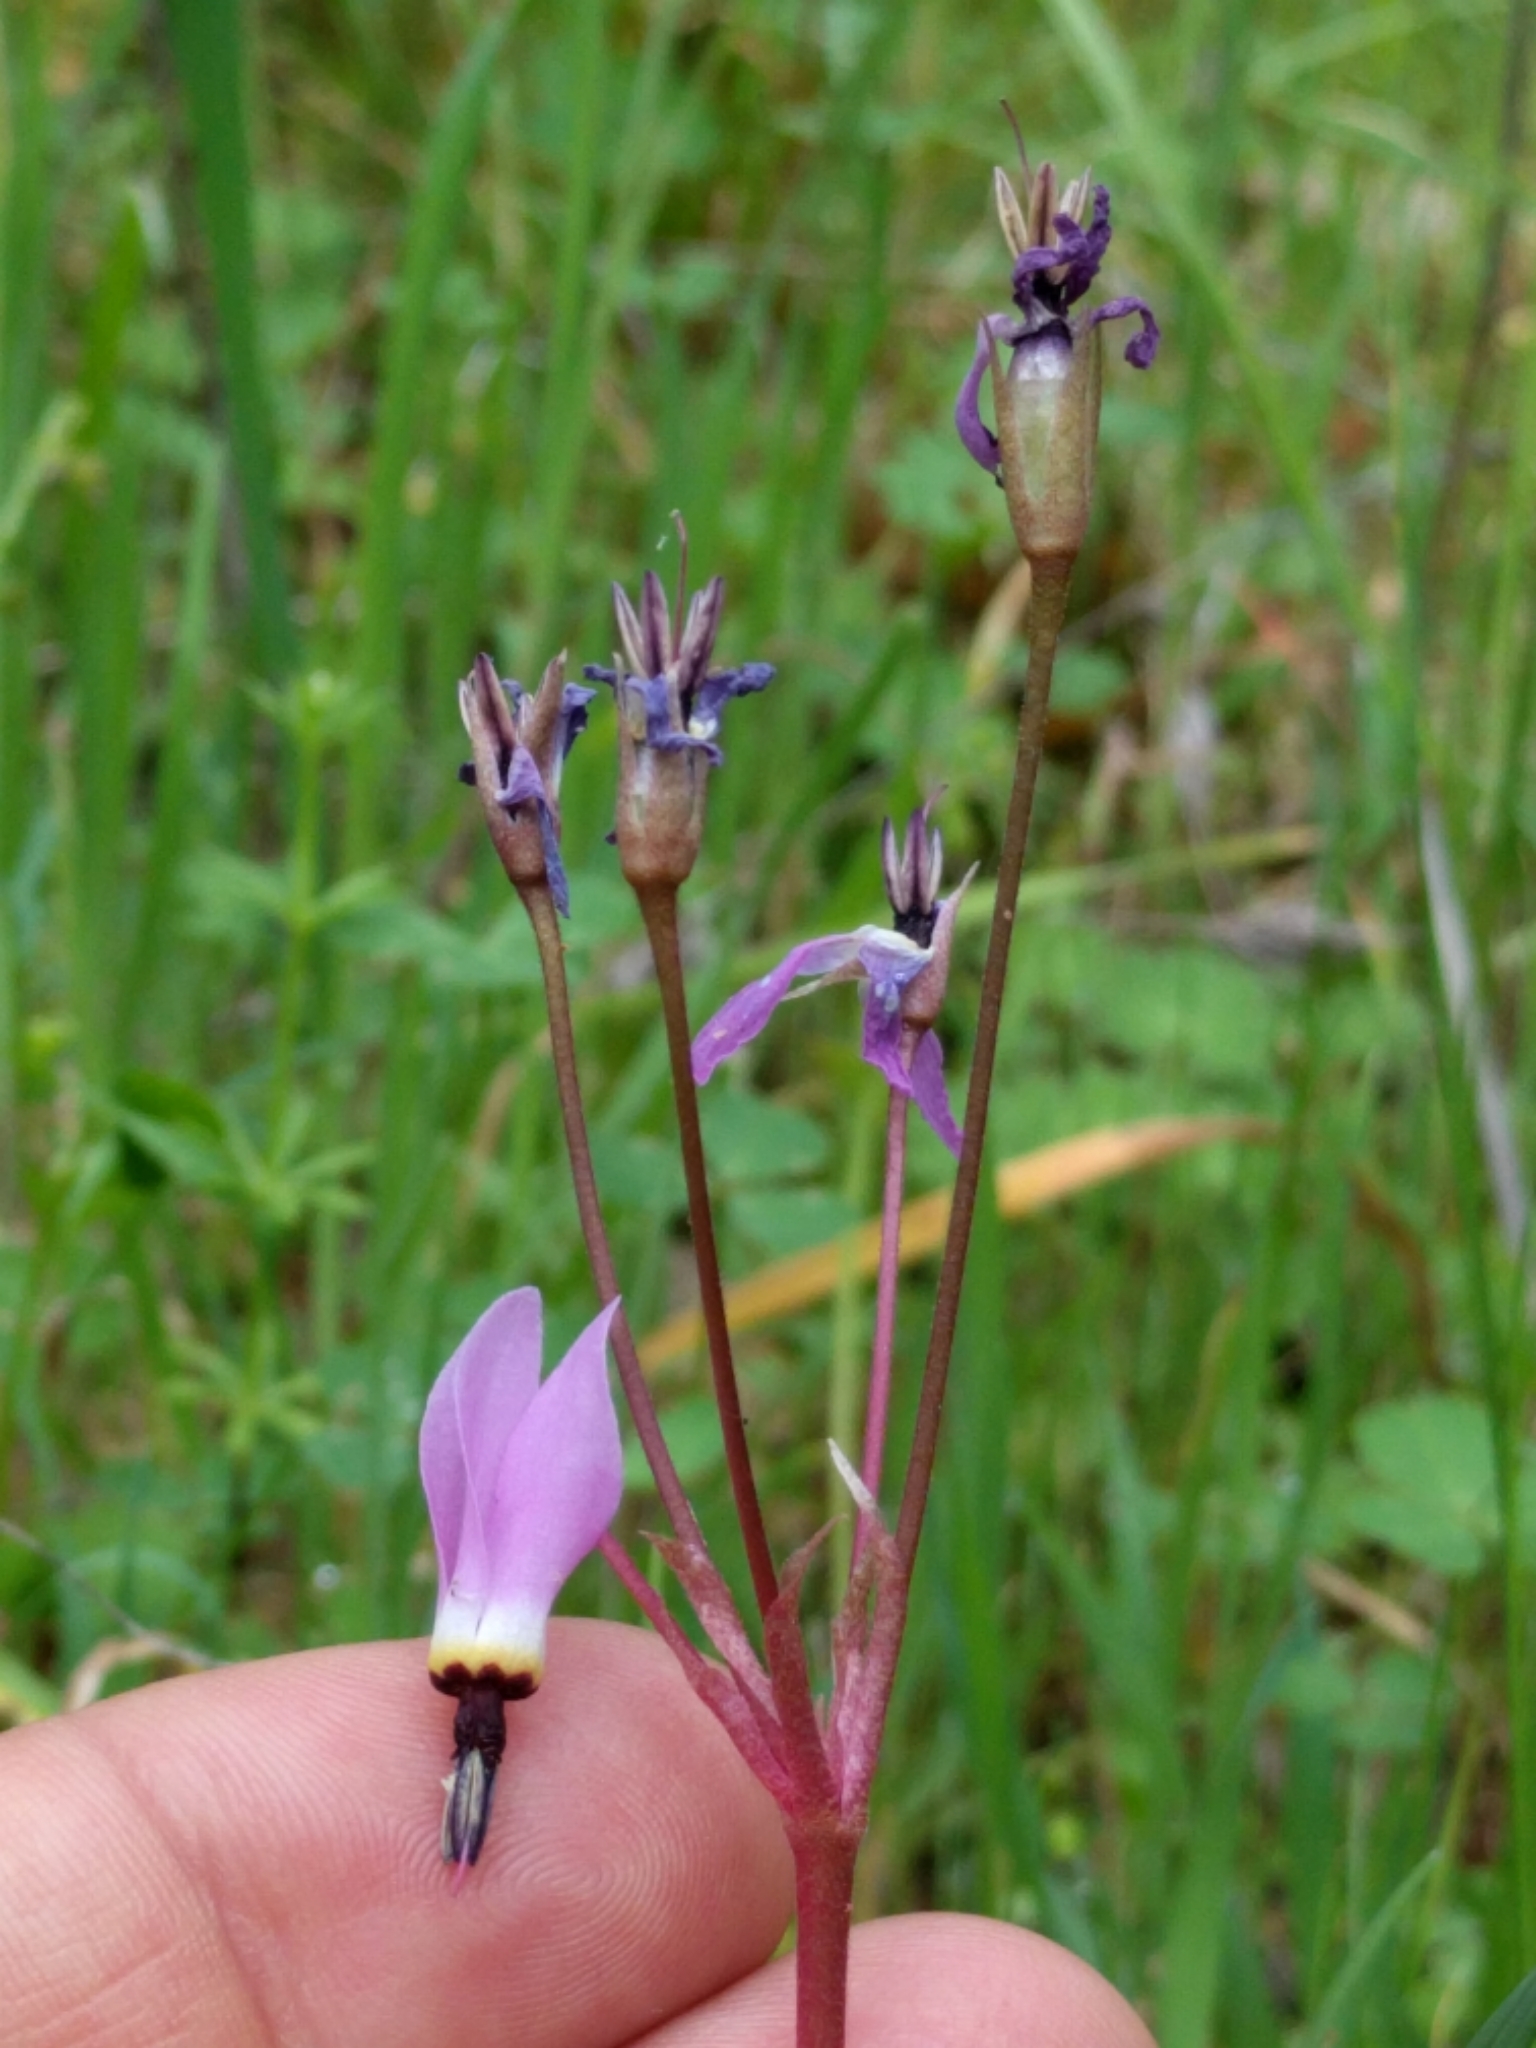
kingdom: Plantae
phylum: Tracheophyta
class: Magnoliopsida
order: Ericales
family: Primulaceae
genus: Dodecatheon
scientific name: Dodecatheon hendersonii
